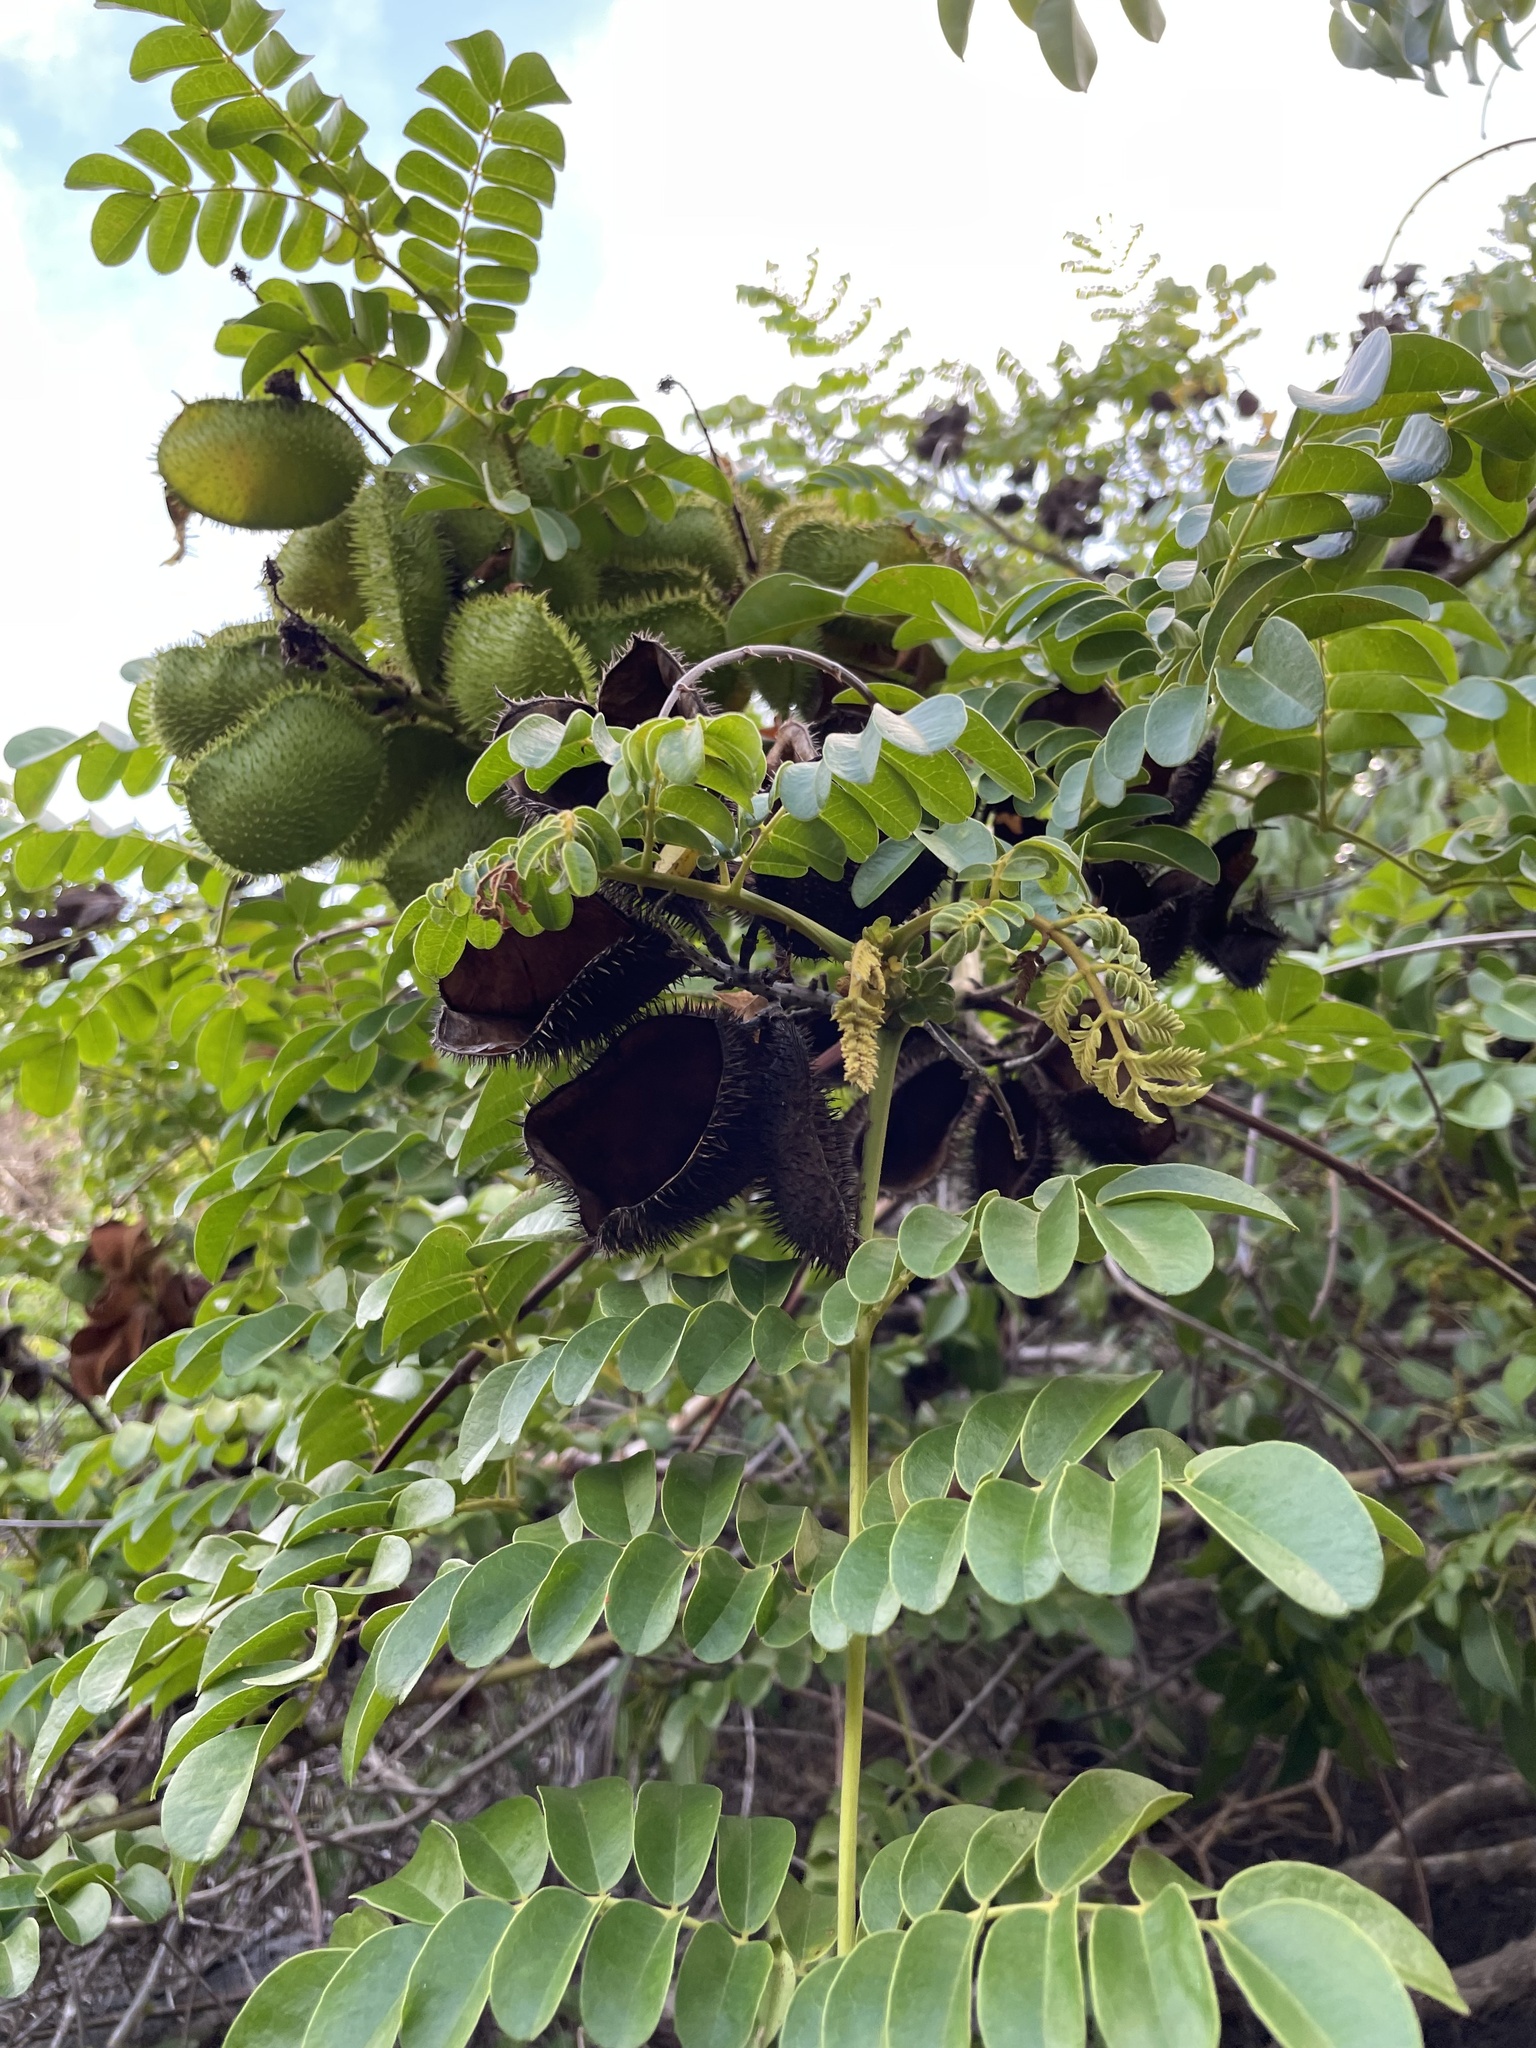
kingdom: Plantae
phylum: Tracheophyta
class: Magnoliopsida
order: Fabales
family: Fabaceae
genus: Guilandina
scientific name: Guilandina bonduc
